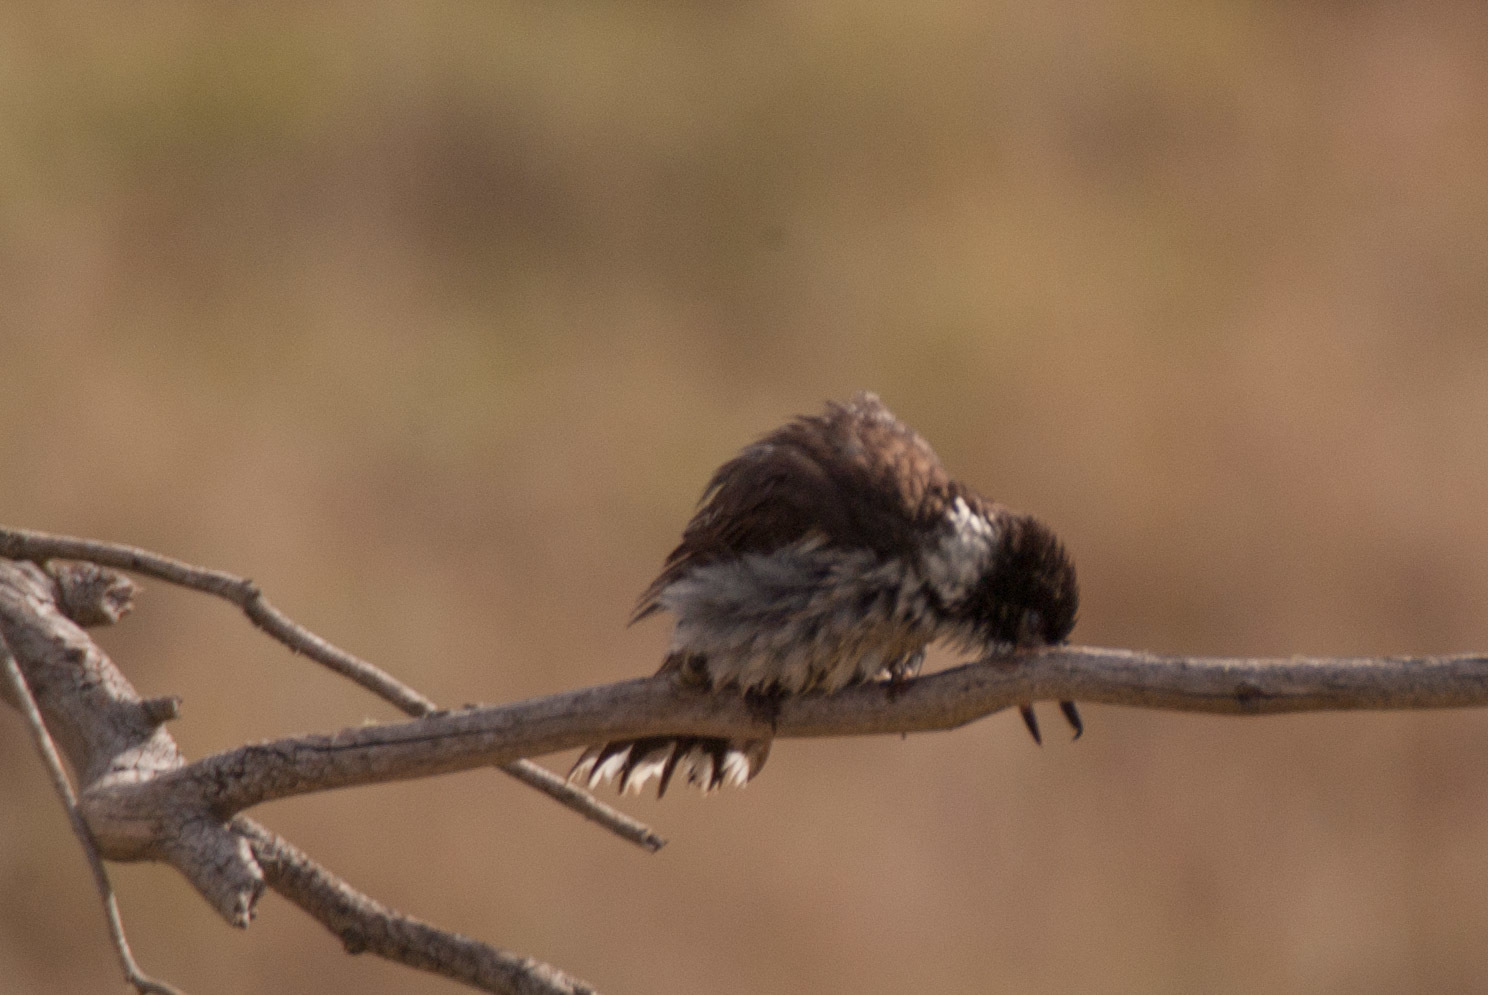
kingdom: Animalia
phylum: Chordata
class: Aves
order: Passeriformes
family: Cracticidae
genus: Cracticus
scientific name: Cracticus torquatus
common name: Grey butcherbird
